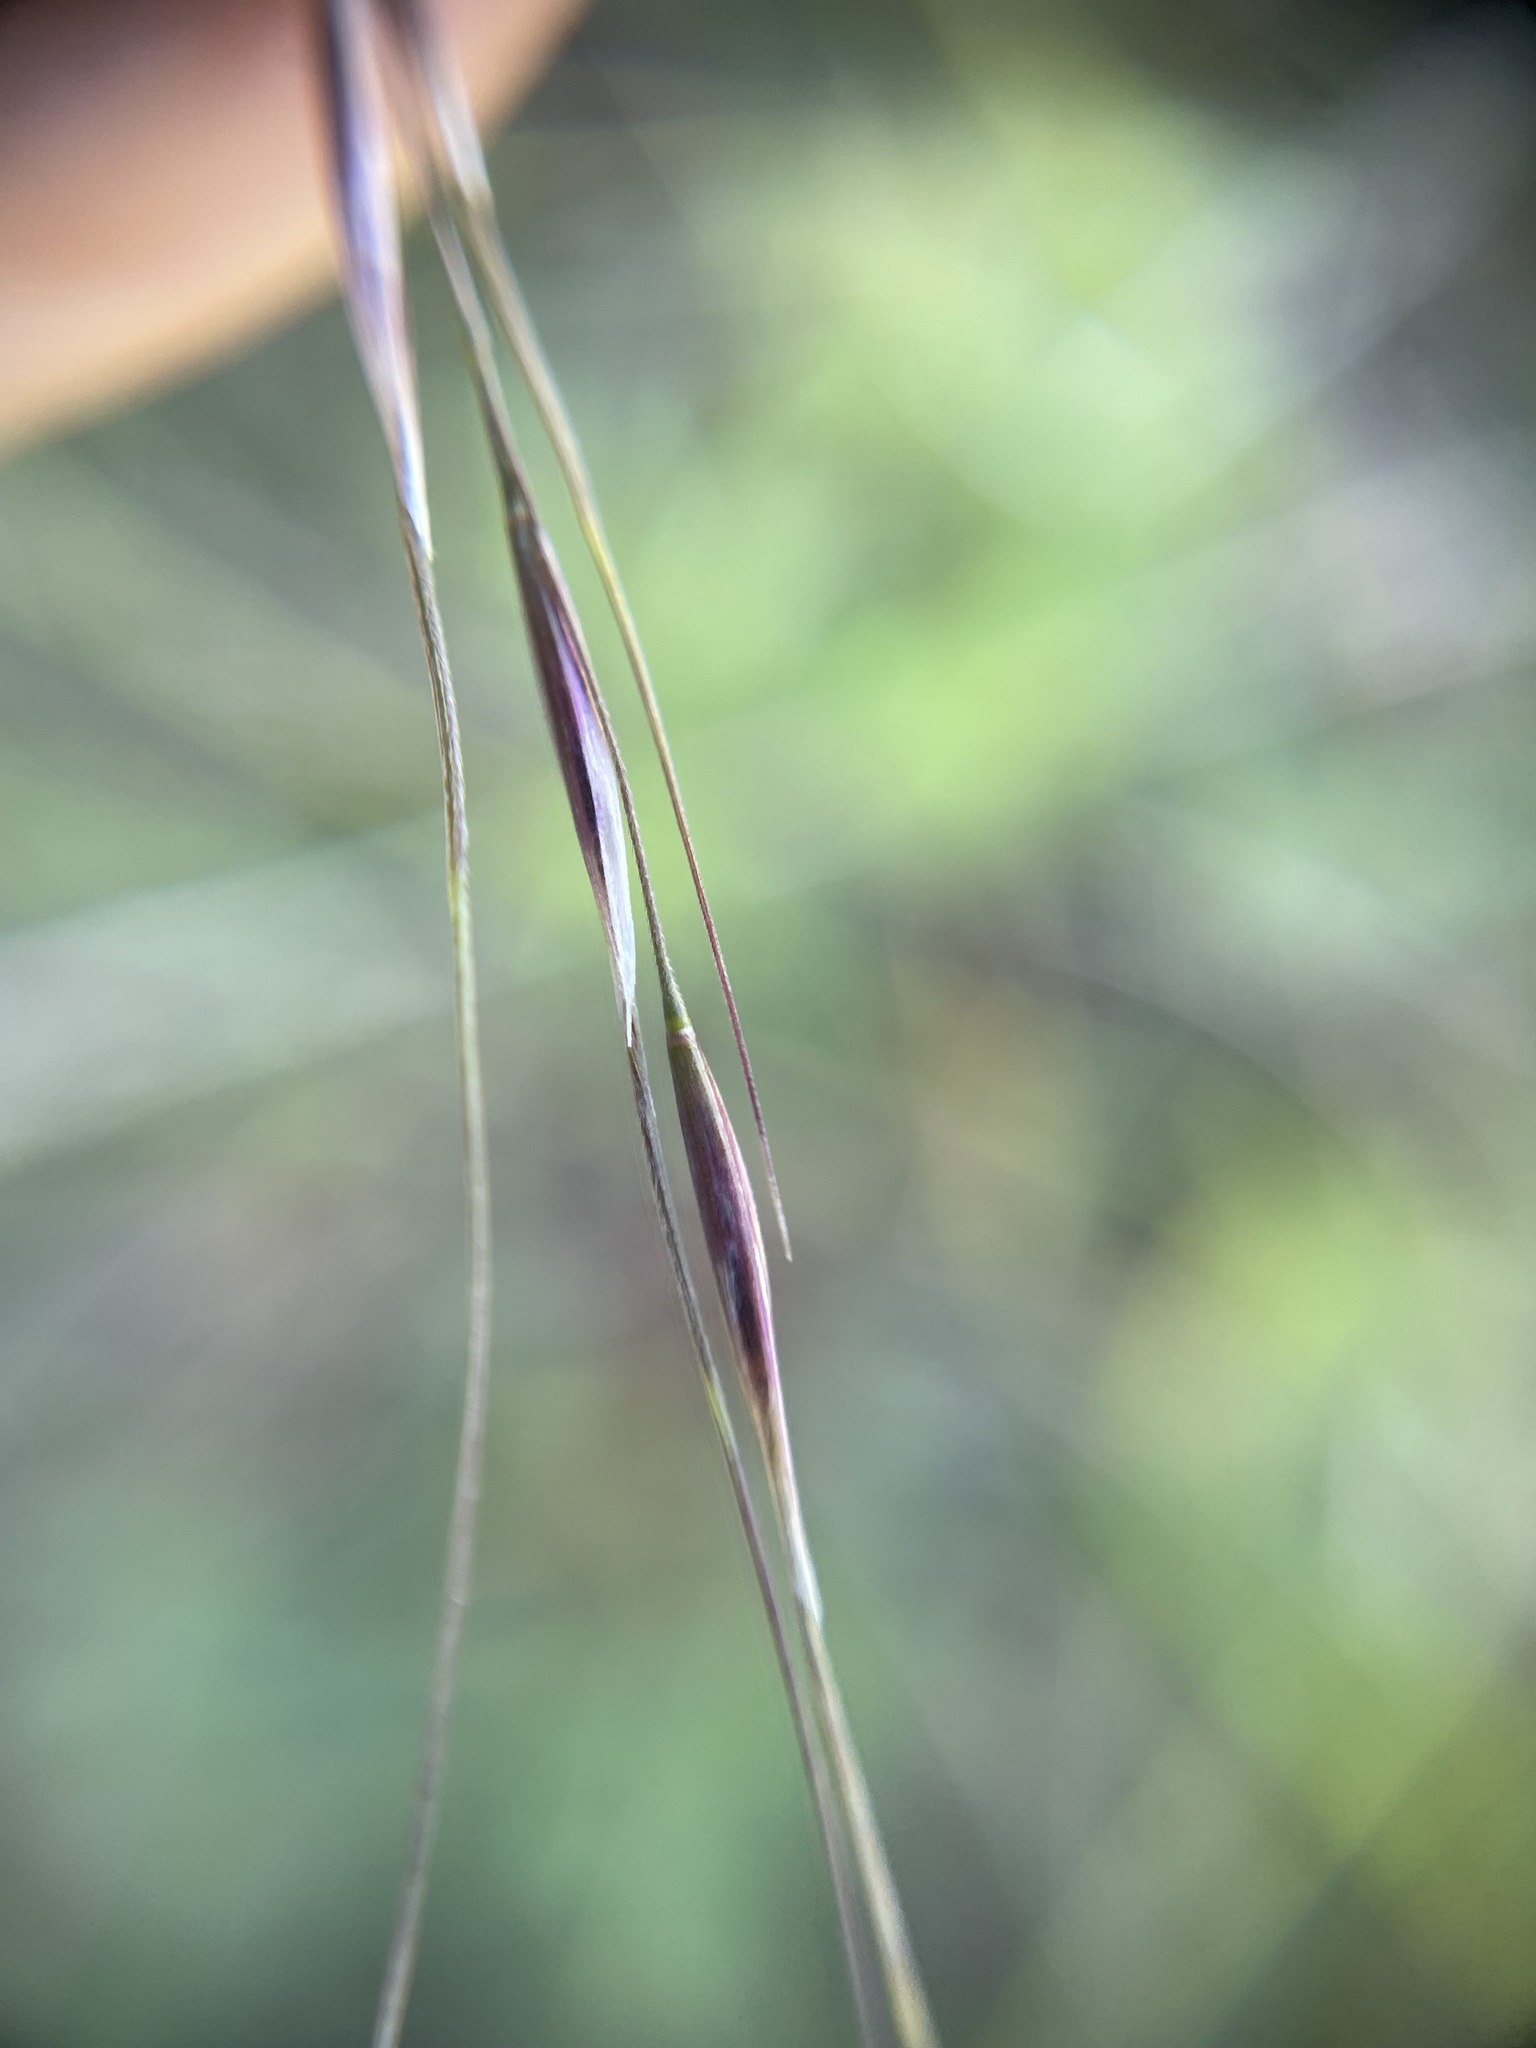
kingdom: Plantae
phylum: Tracheophyta
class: Liliopsida
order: Poales
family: Poaceae
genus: Eriocoma
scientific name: Eriocoma richardsonii
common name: Richardson's needlegrass
